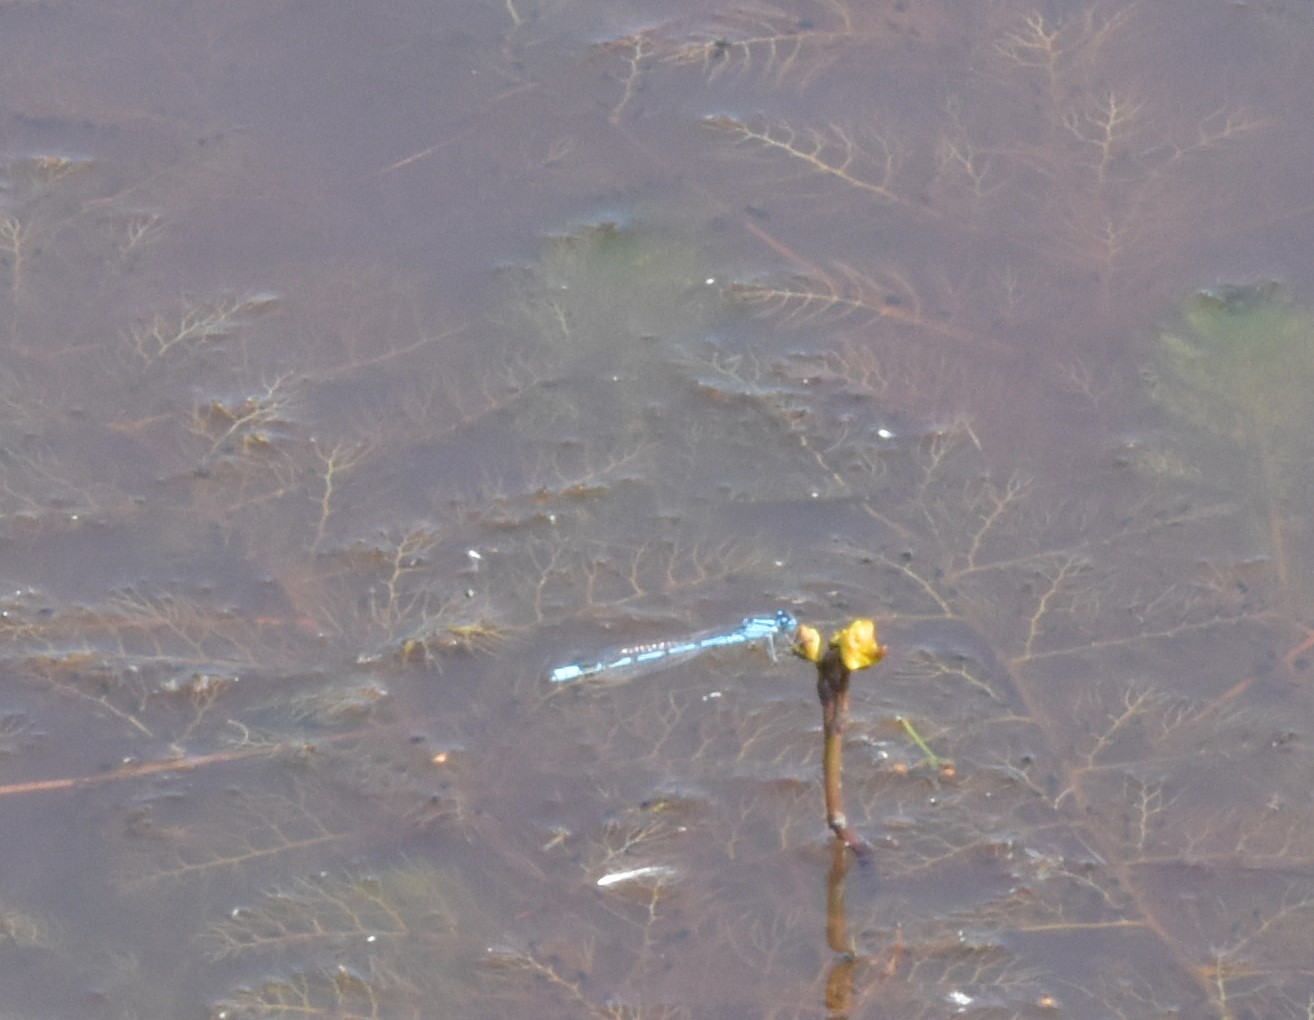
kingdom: Animalia
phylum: Arthropoda
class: Insecta
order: Odonata
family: Coenagrionidae
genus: Enallagma
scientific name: Enallagma cyathigerum
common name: Common blue damselfly
